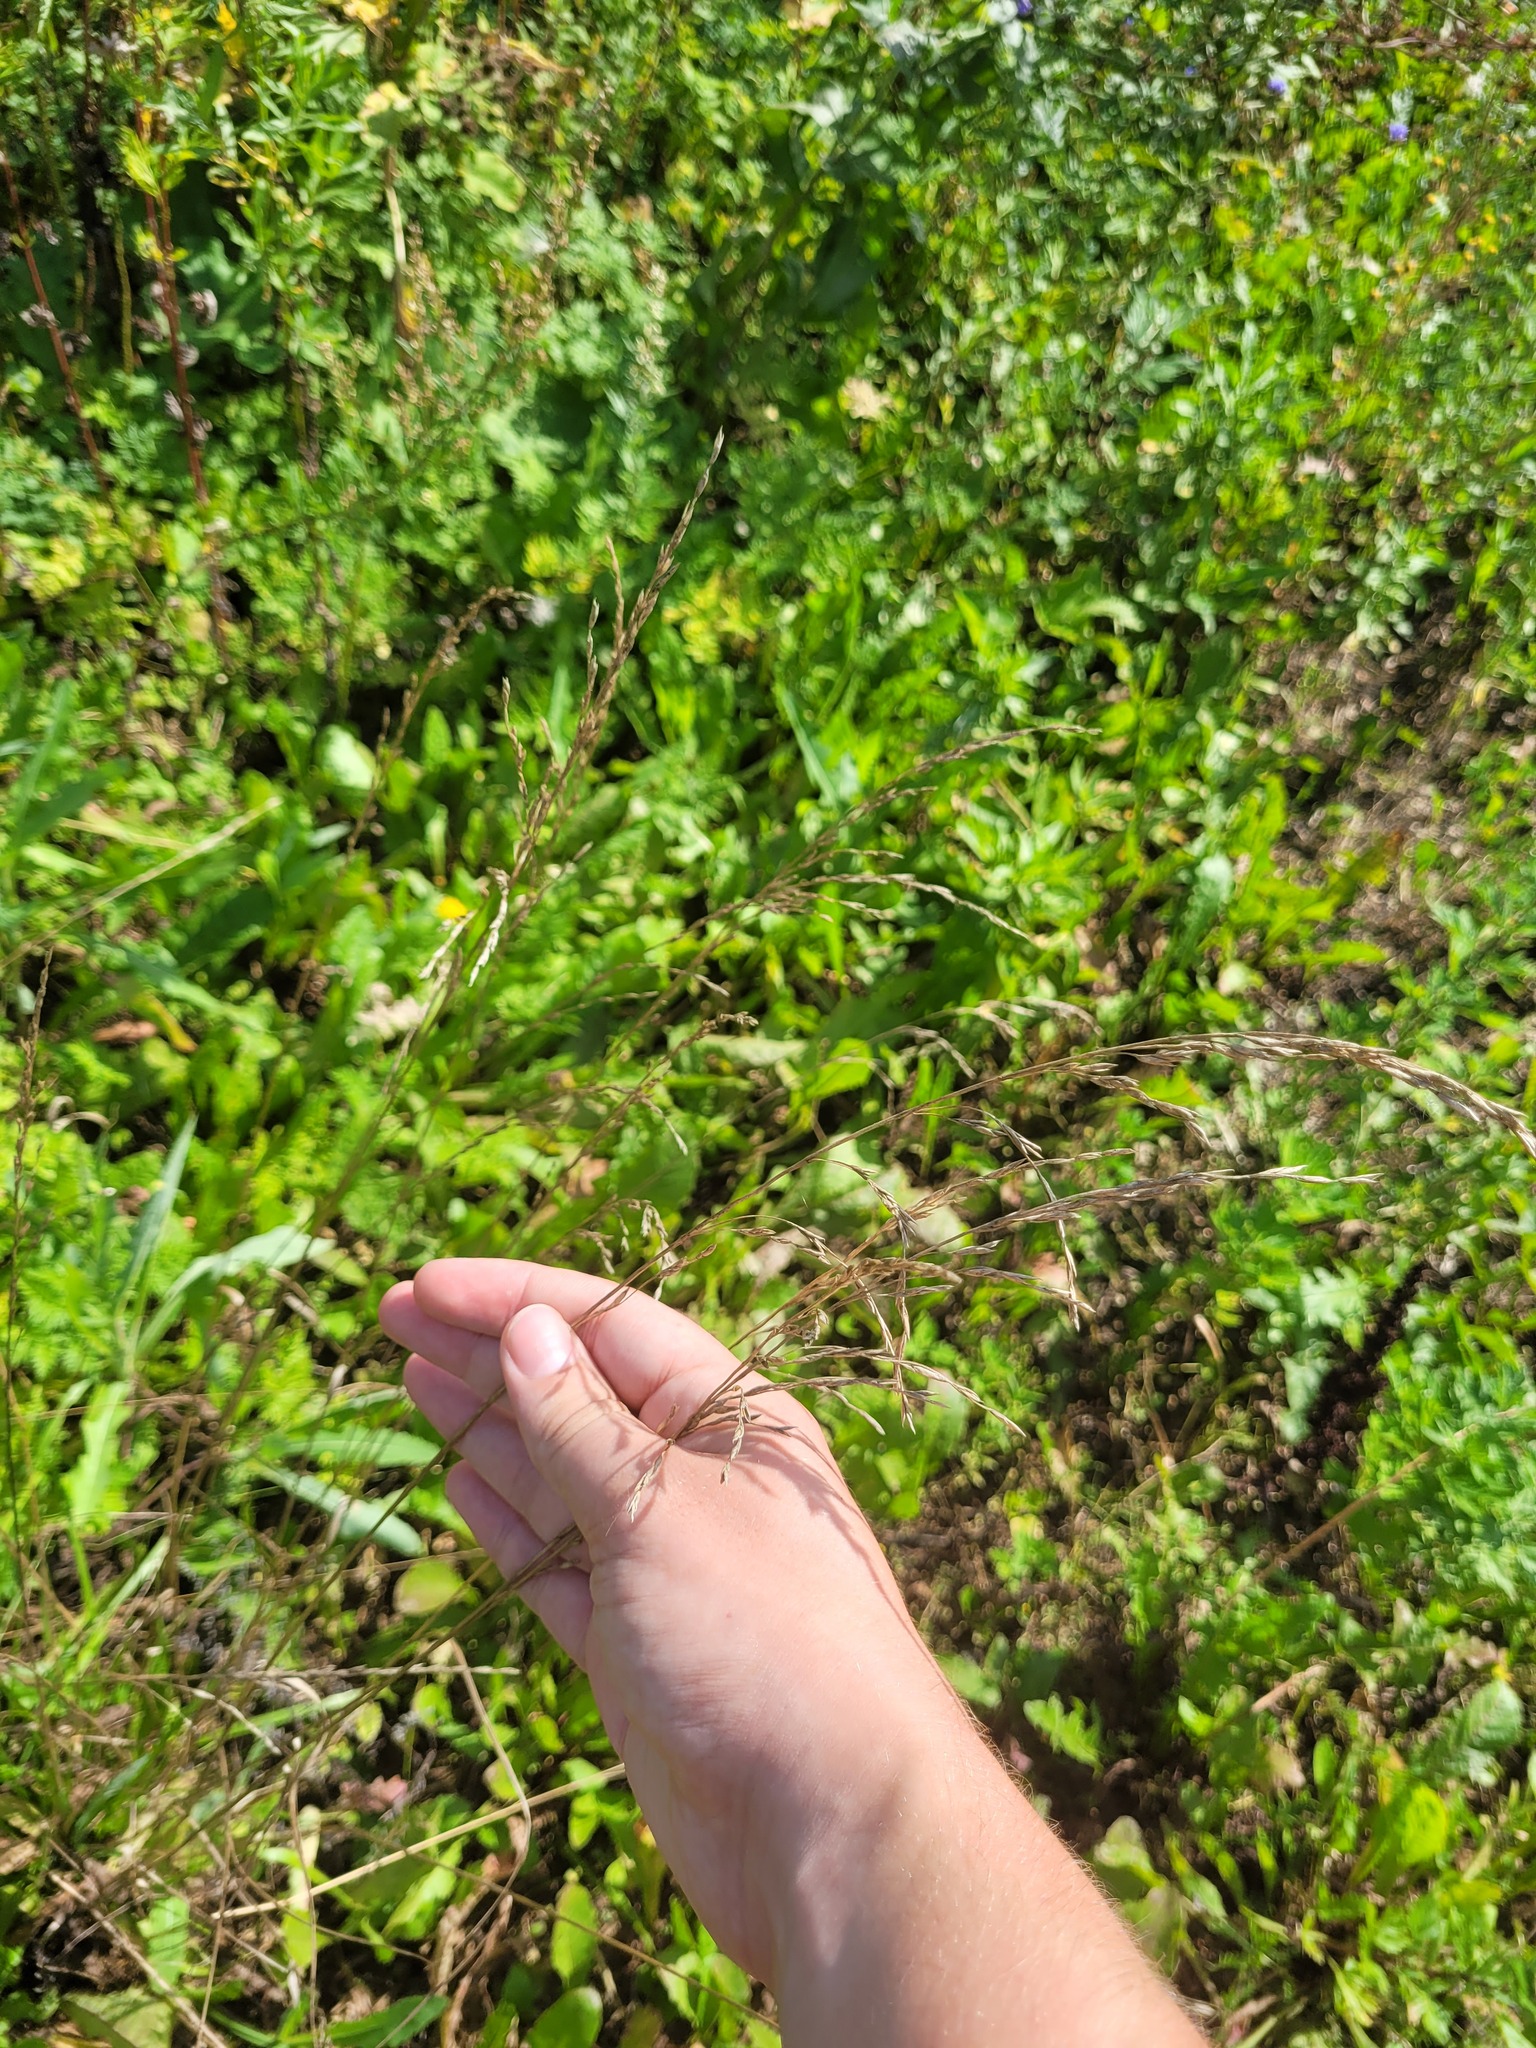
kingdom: Plantae
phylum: Tracheophyta
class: Liliopsida
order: Poales
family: Poaceae
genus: Lolium
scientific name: Lolium pratense
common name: Dover grass
